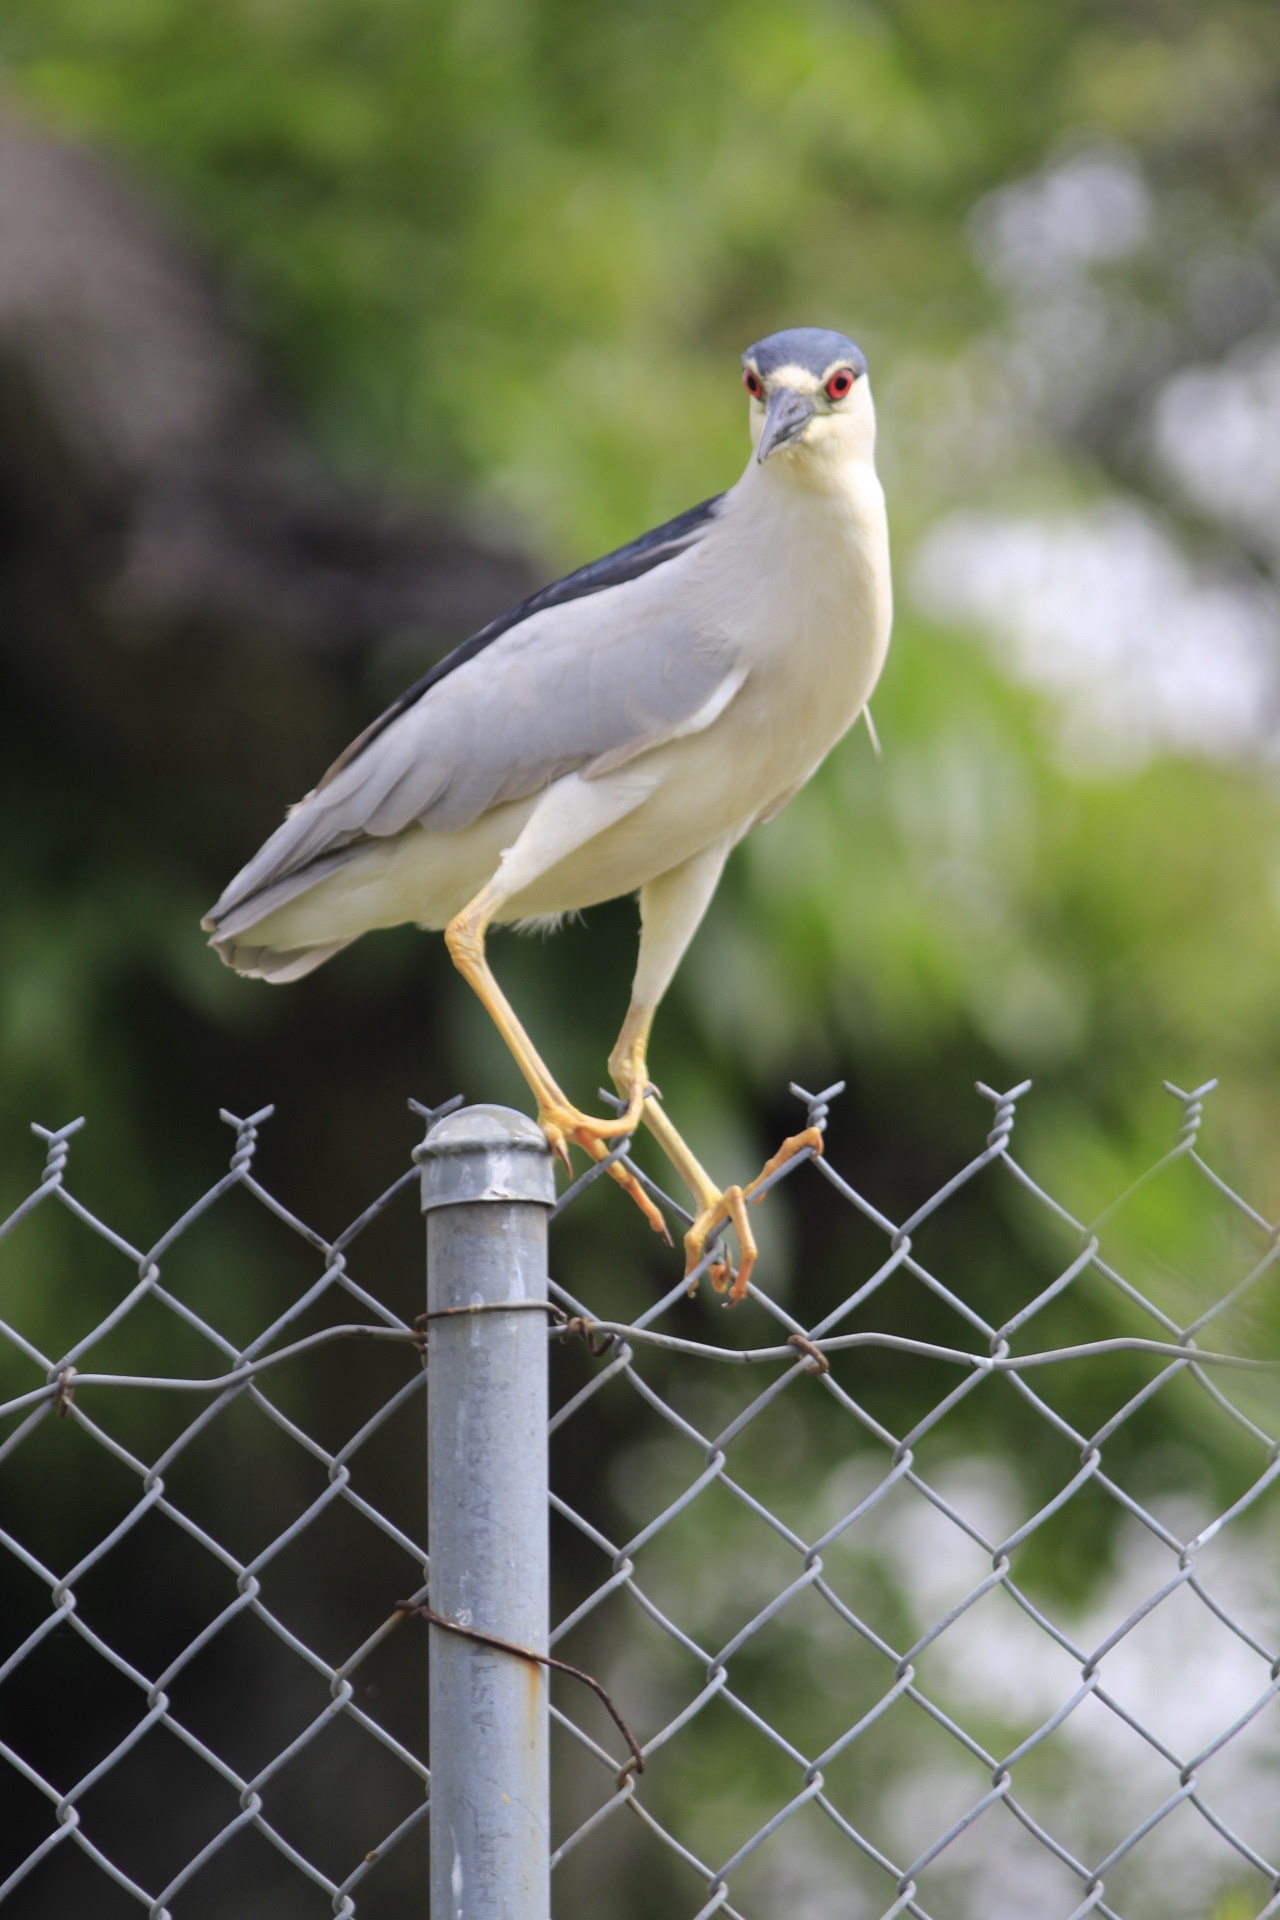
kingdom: Animalia
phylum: Chordata
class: Aves
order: Pelecaniformes
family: Ardeidae
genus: Nycticorax
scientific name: Nycticorax nycticorax
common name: Black-crowned night heron
